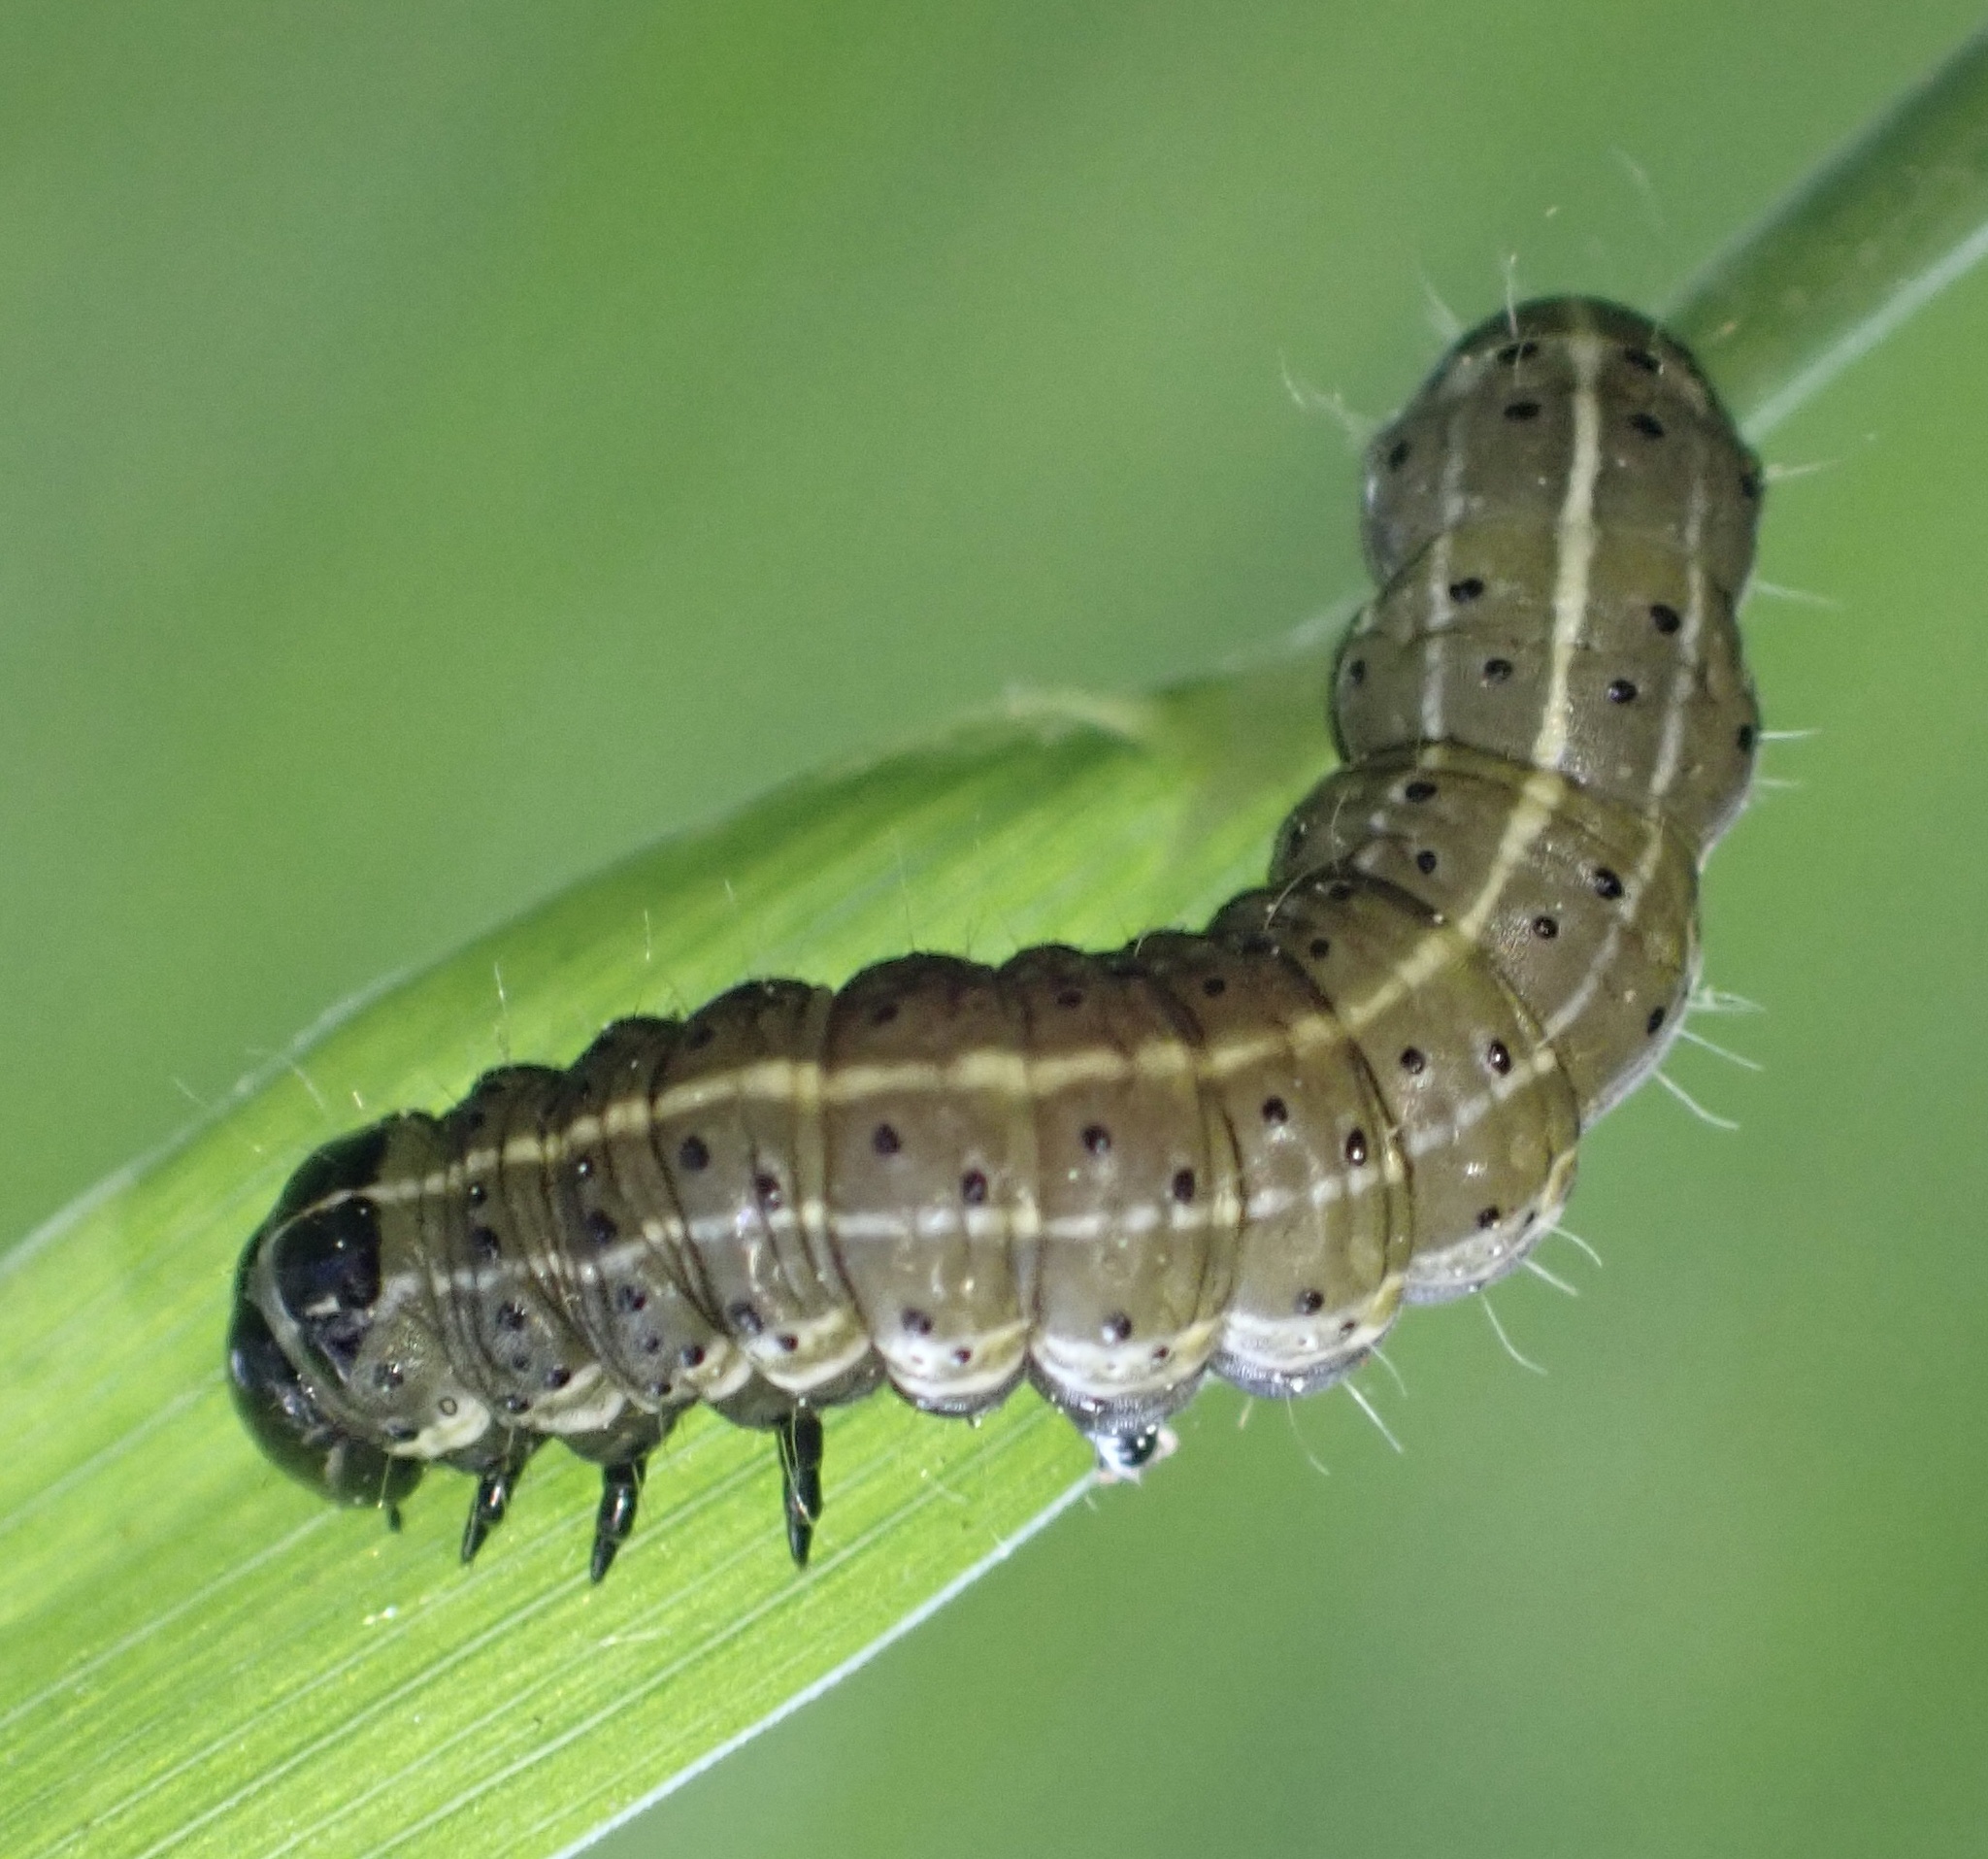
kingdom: Animalia
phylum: Arthropoda
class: Insecta
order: Lepidoptera
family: Noctuidae
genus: Orthosia
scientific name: Orthosia cruda
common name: Small quaker
